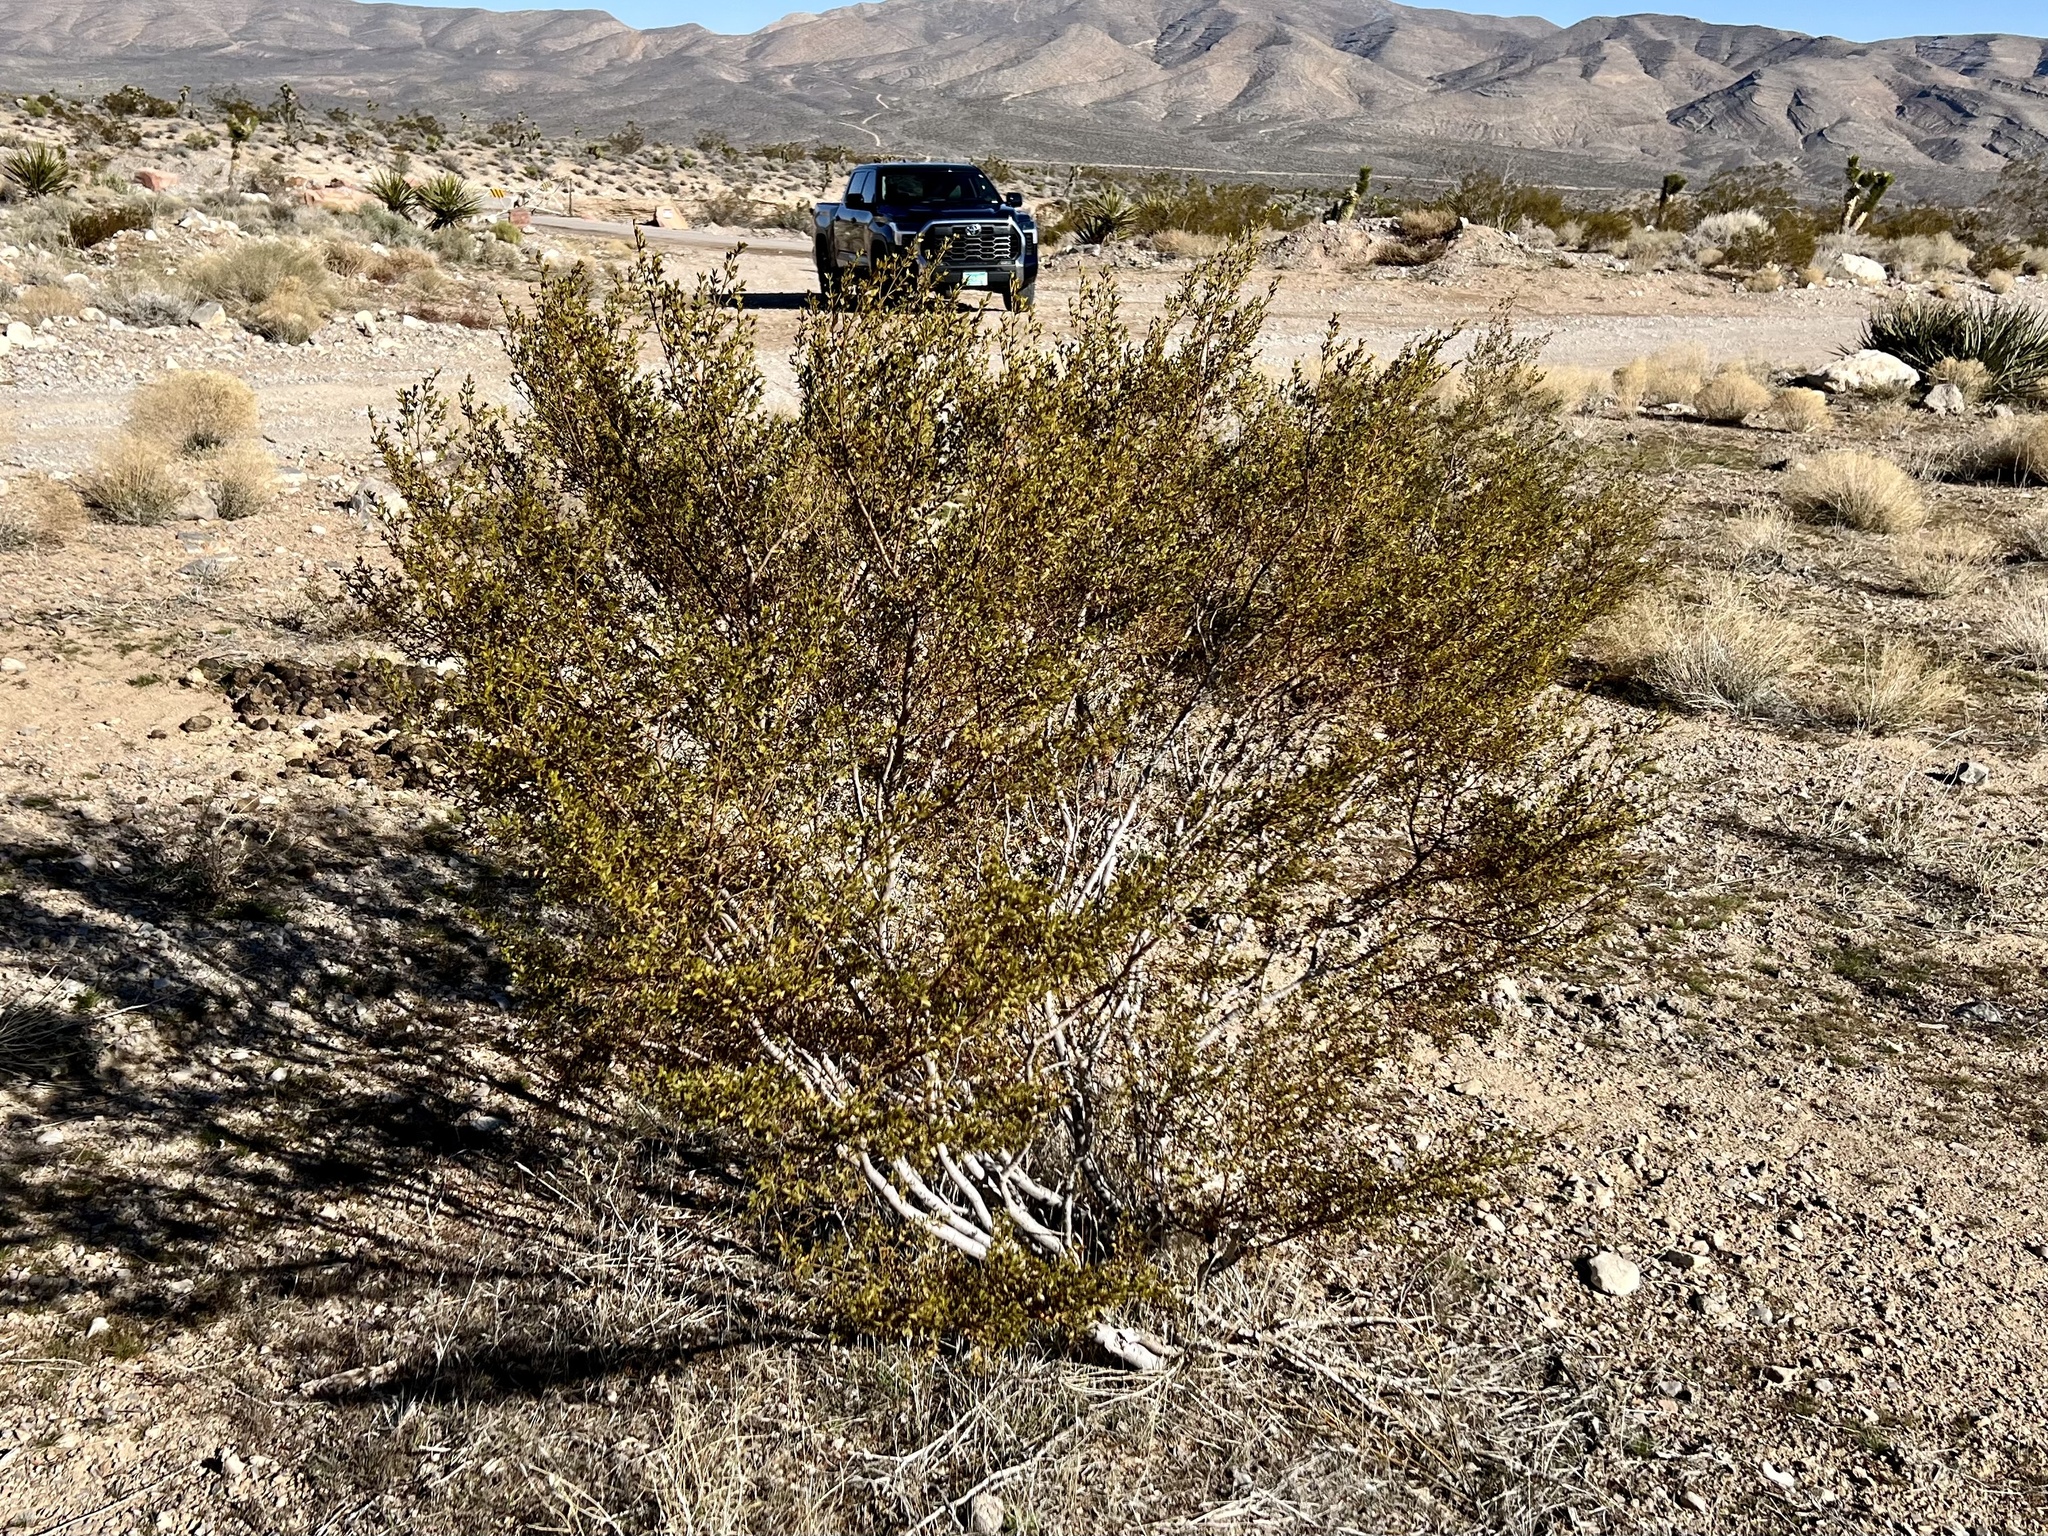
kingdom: Plantae
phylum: Tracheophyta
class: Magnoliopsida
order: Zygophyllales
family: Zygophyllaceae
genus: Larrea
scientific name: Larrea tridentata
